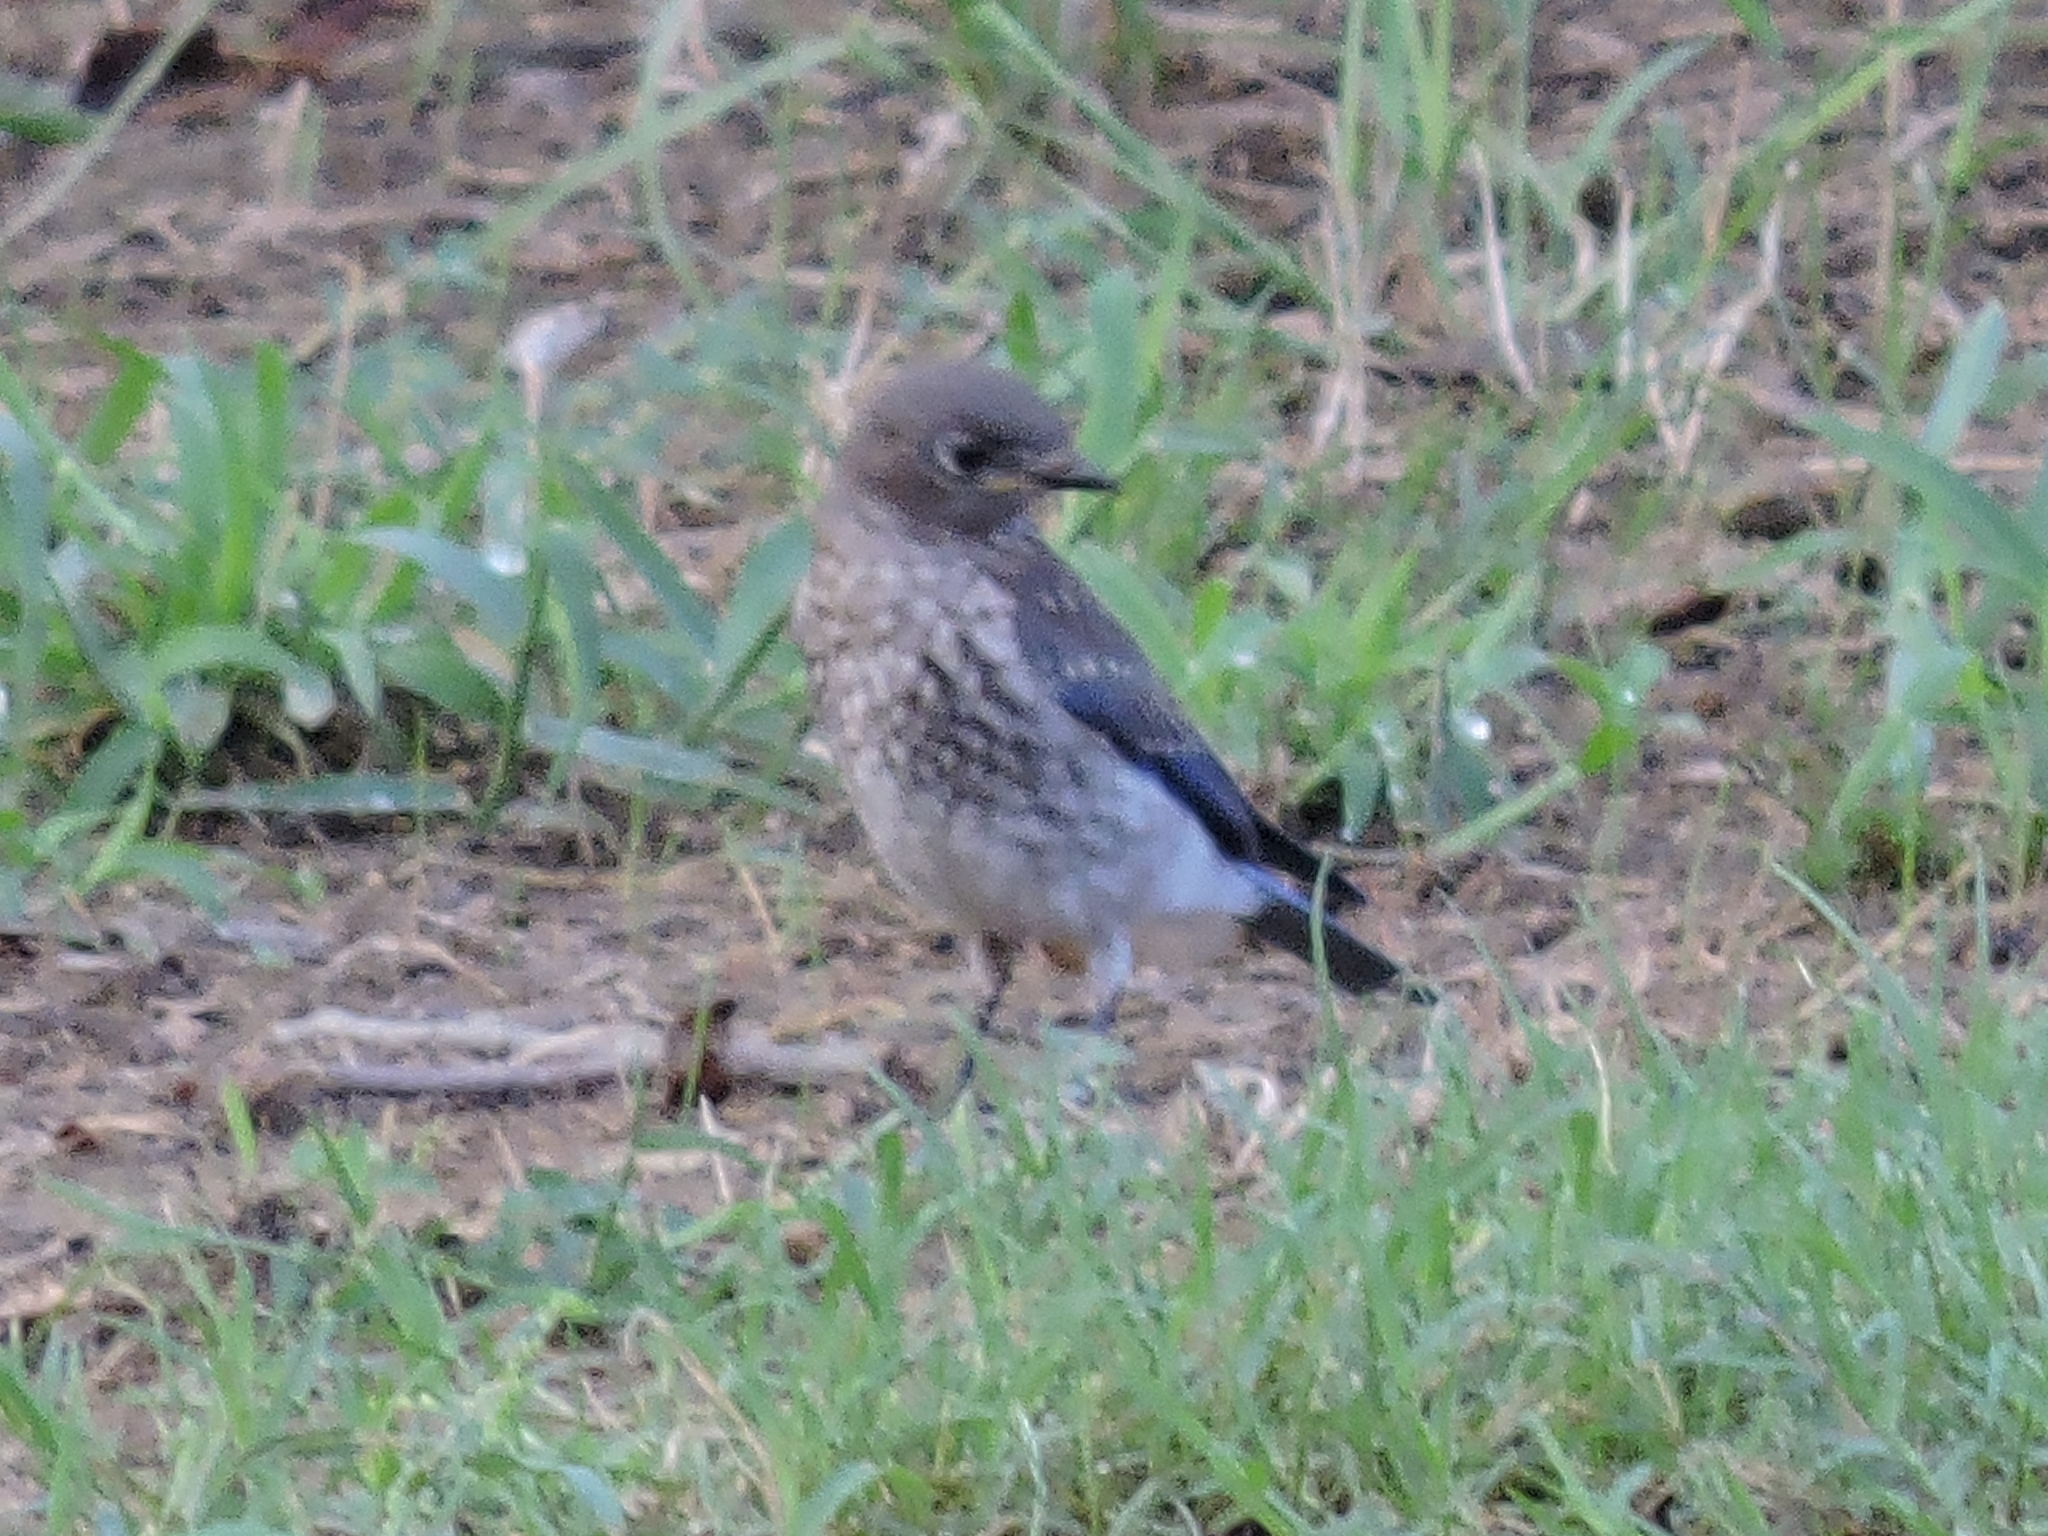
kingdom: Animalia
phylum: Chordata
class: Aves
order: Passeriformes
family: Turdidae
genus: Sialia
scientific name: Sialia sialis
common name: Eastern bluebird
